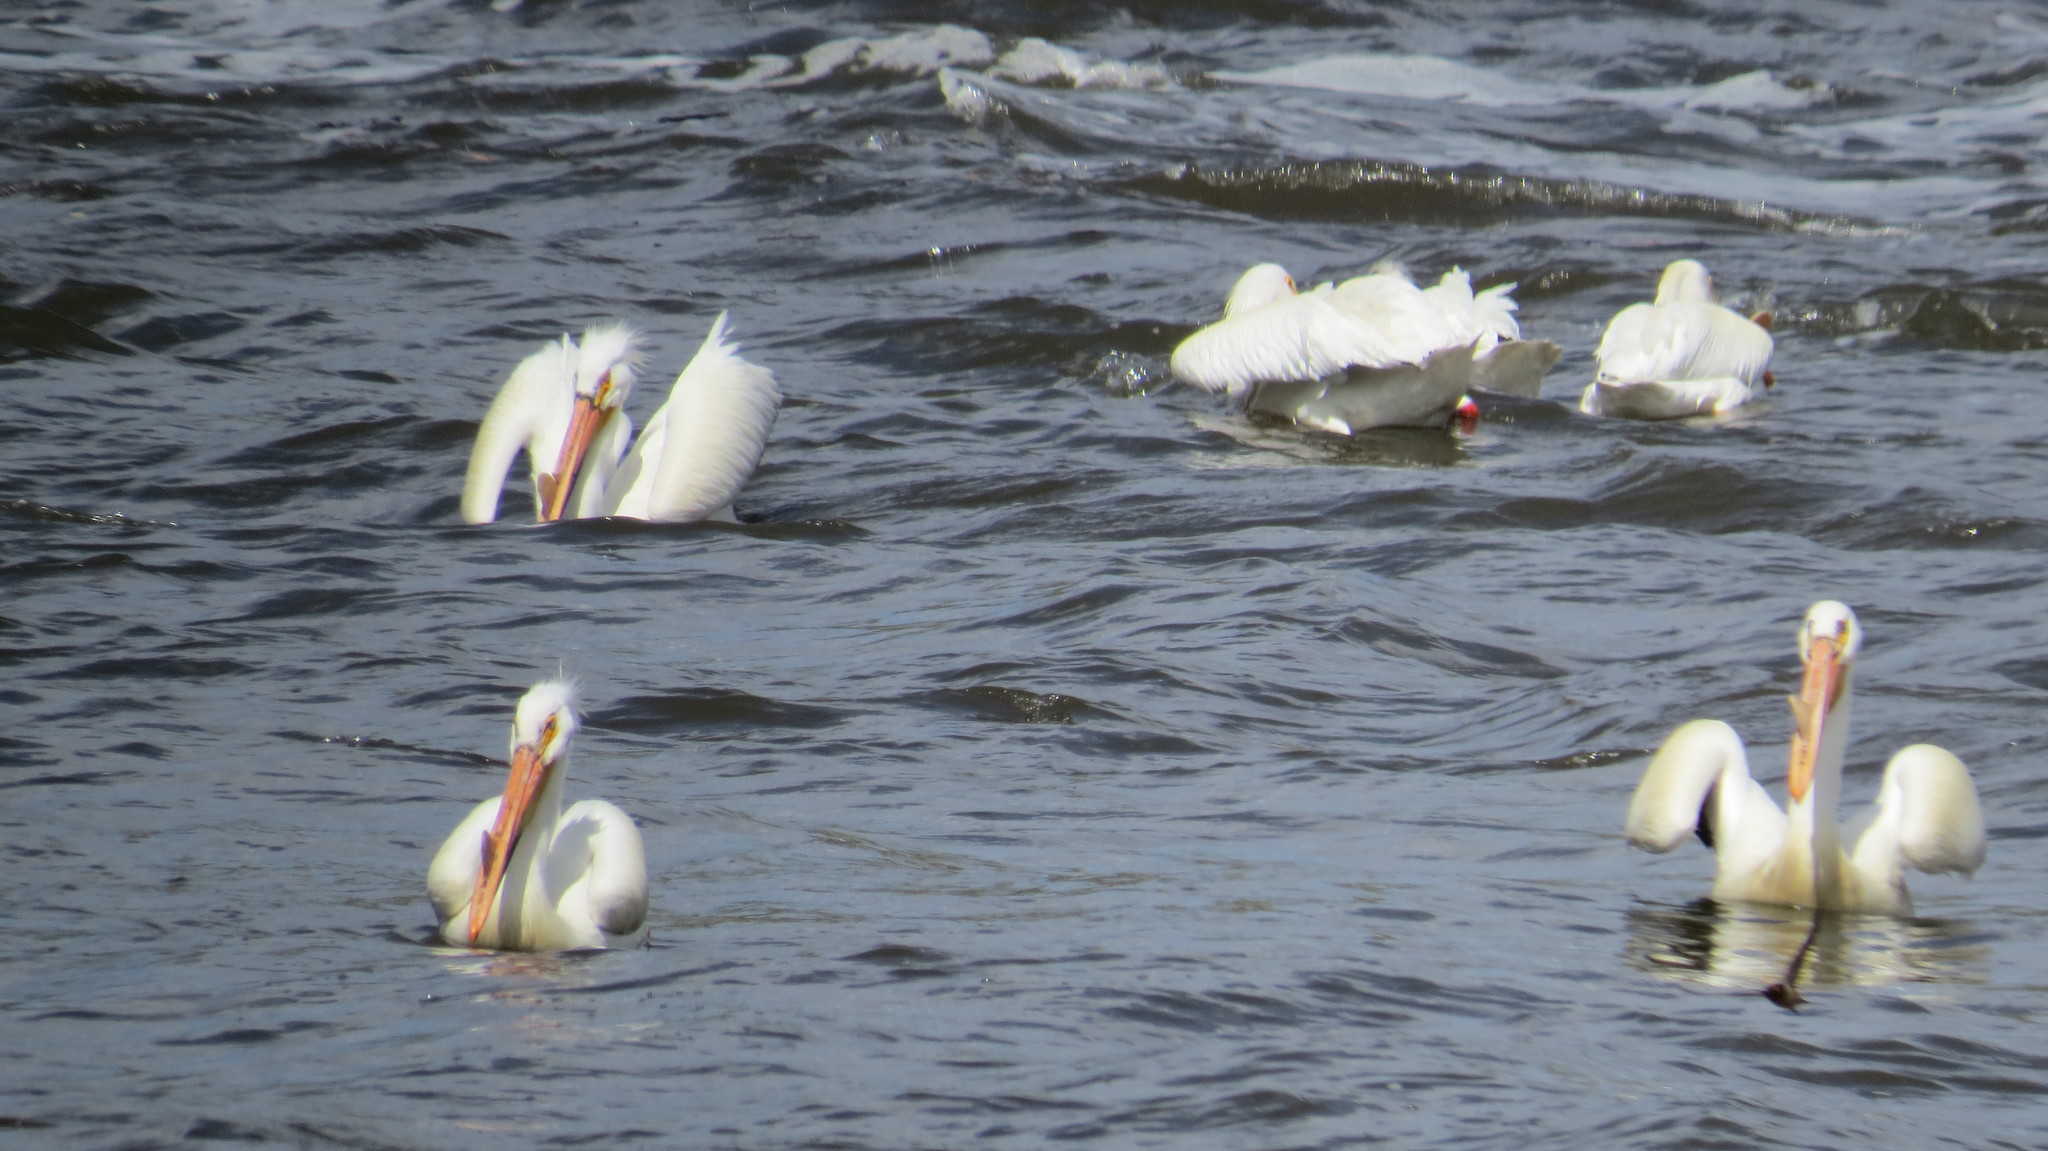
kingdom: Animalia
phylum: Chordata
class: Aves
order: Pelecaniformes
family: Pelecanidae
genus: Pelecanus
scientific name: Pelecanus erythrorhynchos
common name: American white pelican
